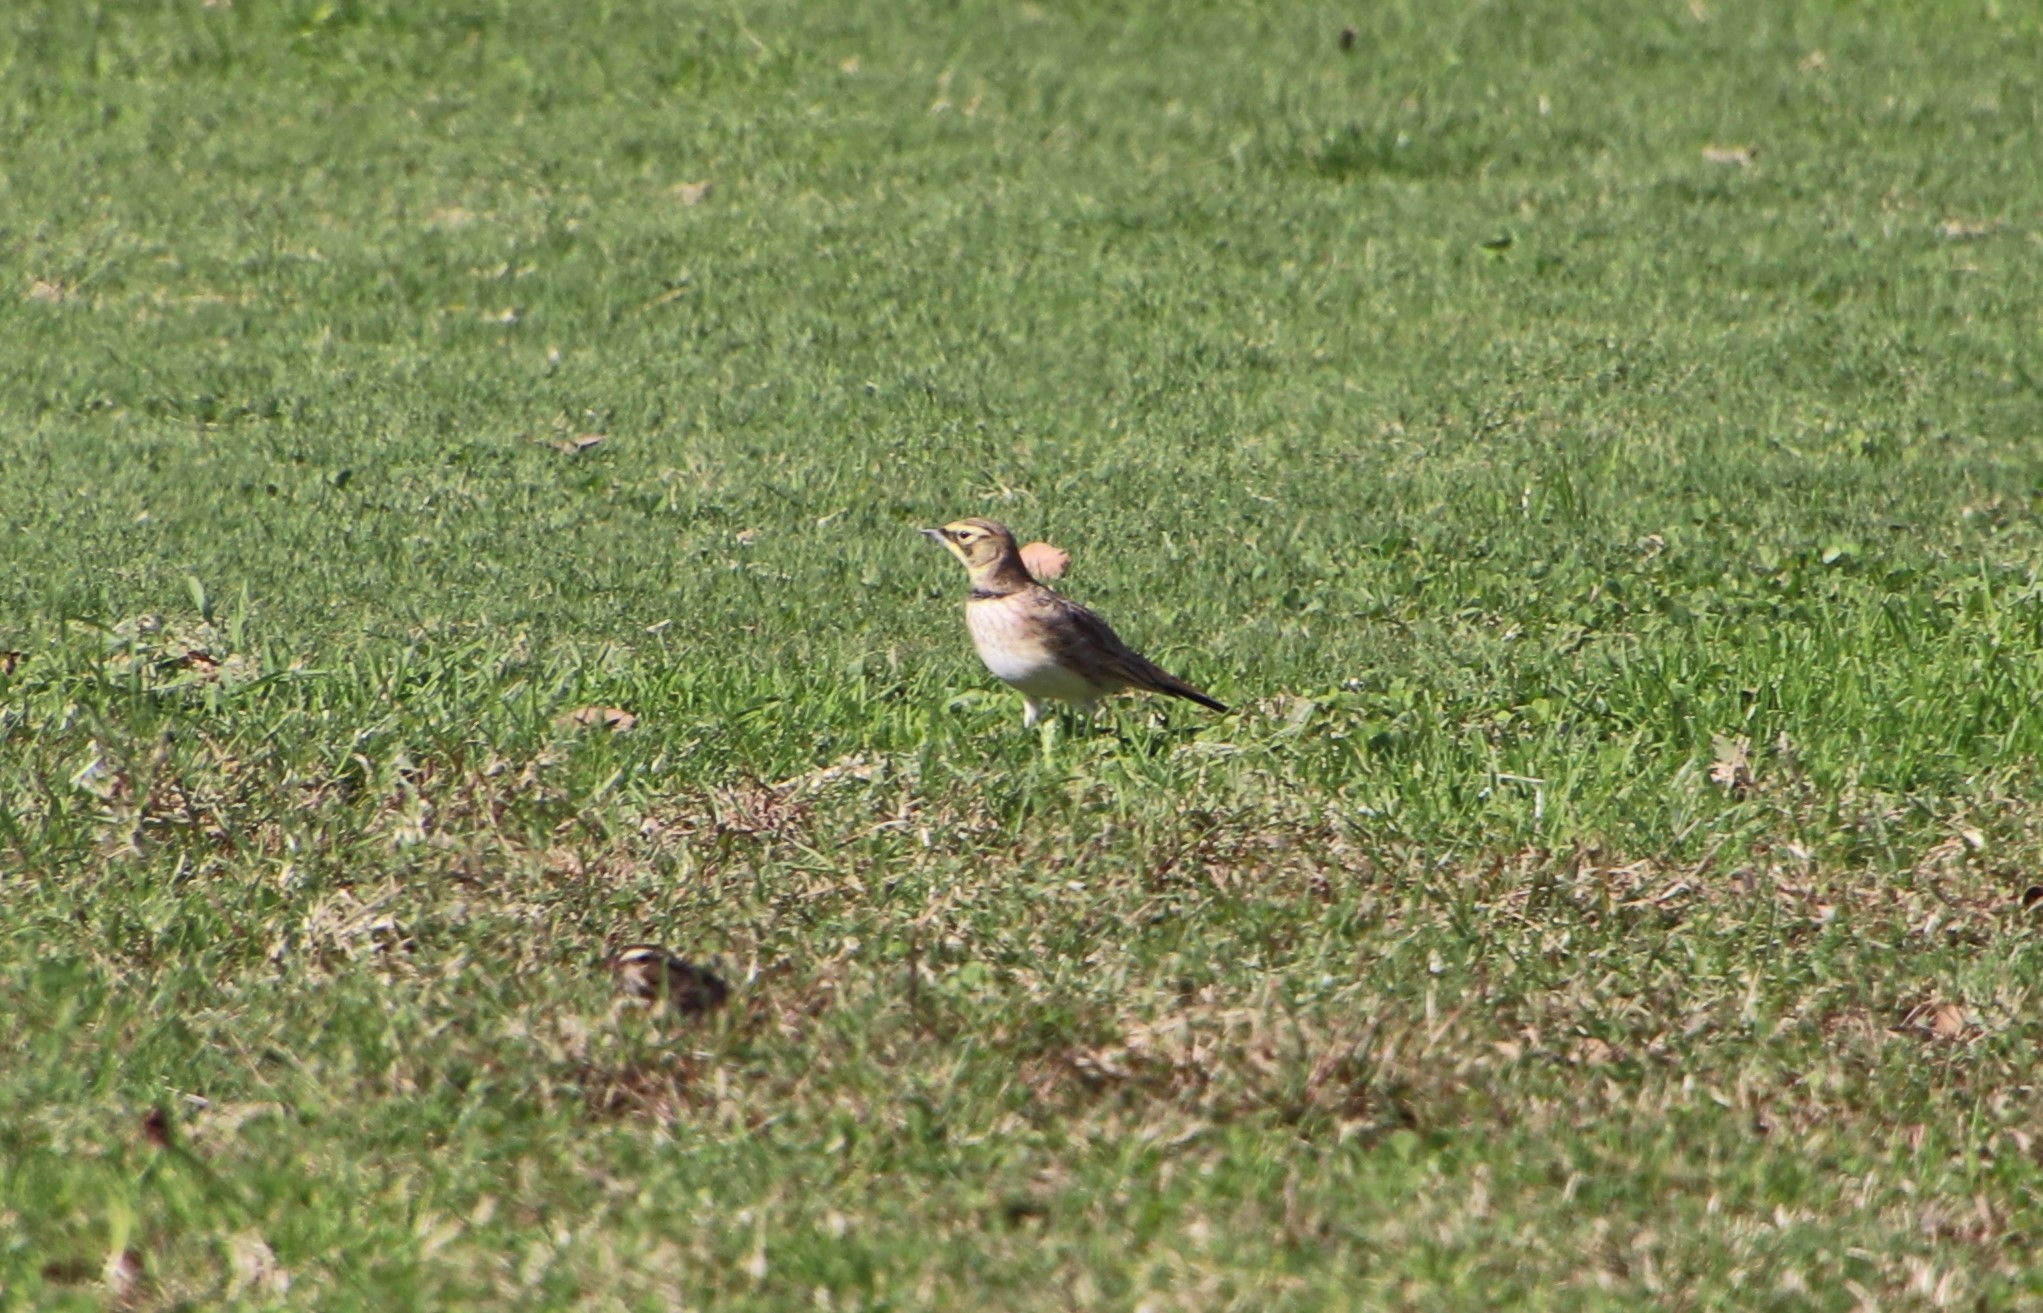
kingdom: Animalia
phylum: Chordata
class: Aves
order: Passeriformes
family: Alaudidae
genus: Eremophila
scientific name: Eremophila alpestris
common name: Horned lark
